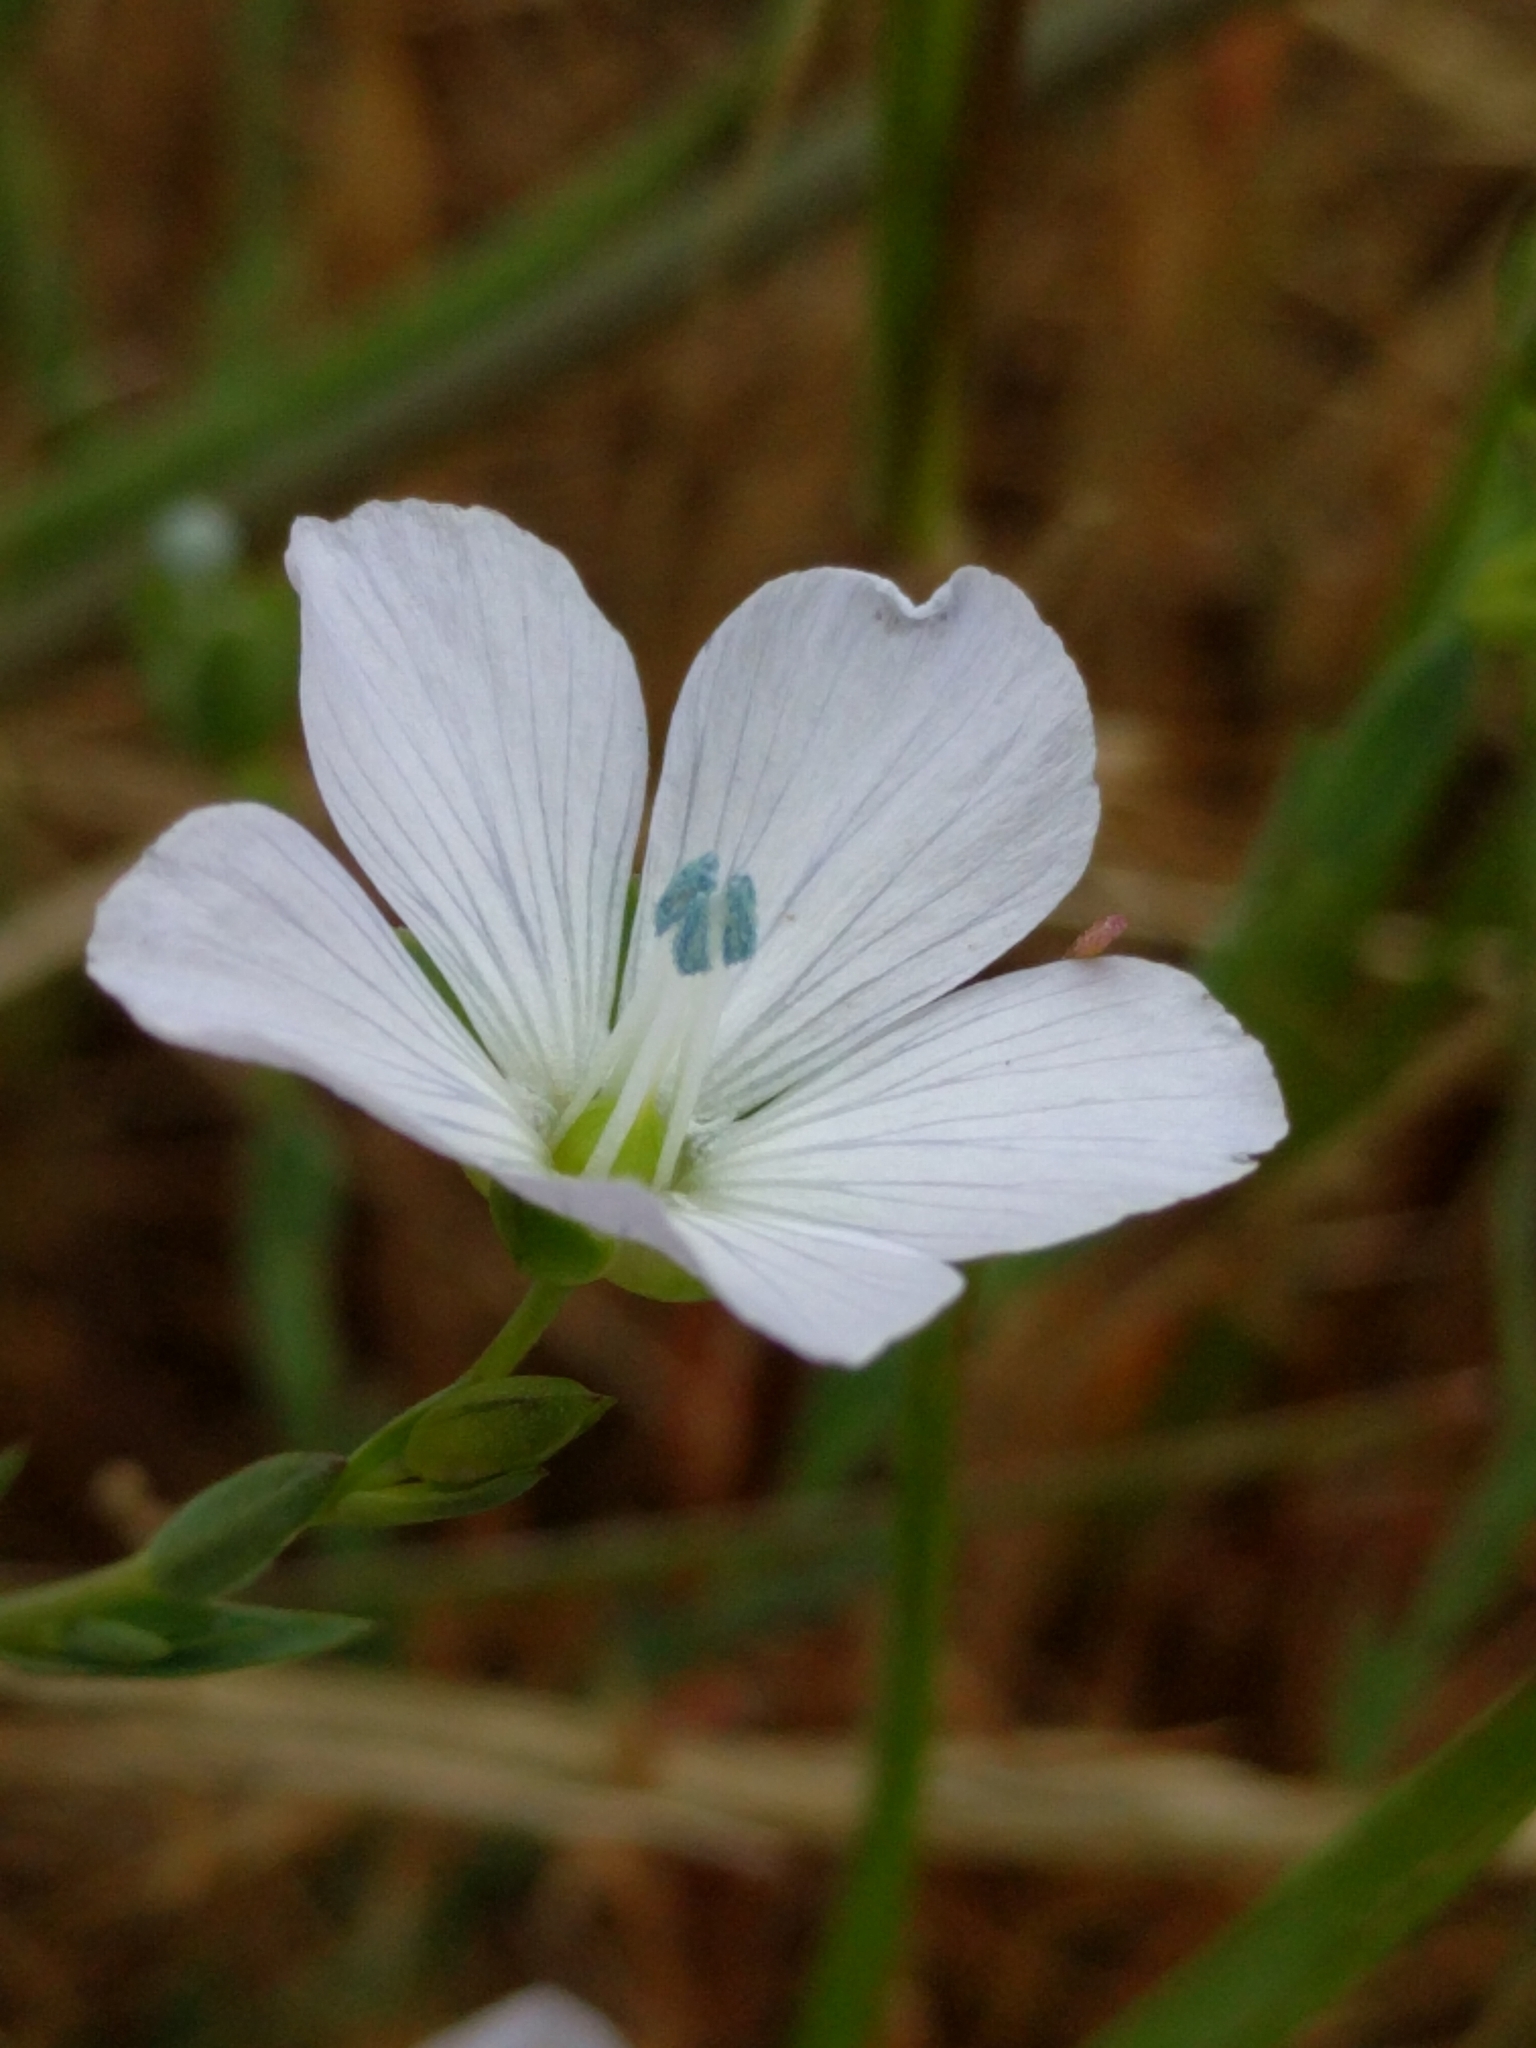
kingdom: Plantae
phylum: Tracheophyta
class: Magnoliopsida
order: Malpighiales
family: Linaceae
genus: Linum
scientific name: Linum bienne
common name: Pale flax
